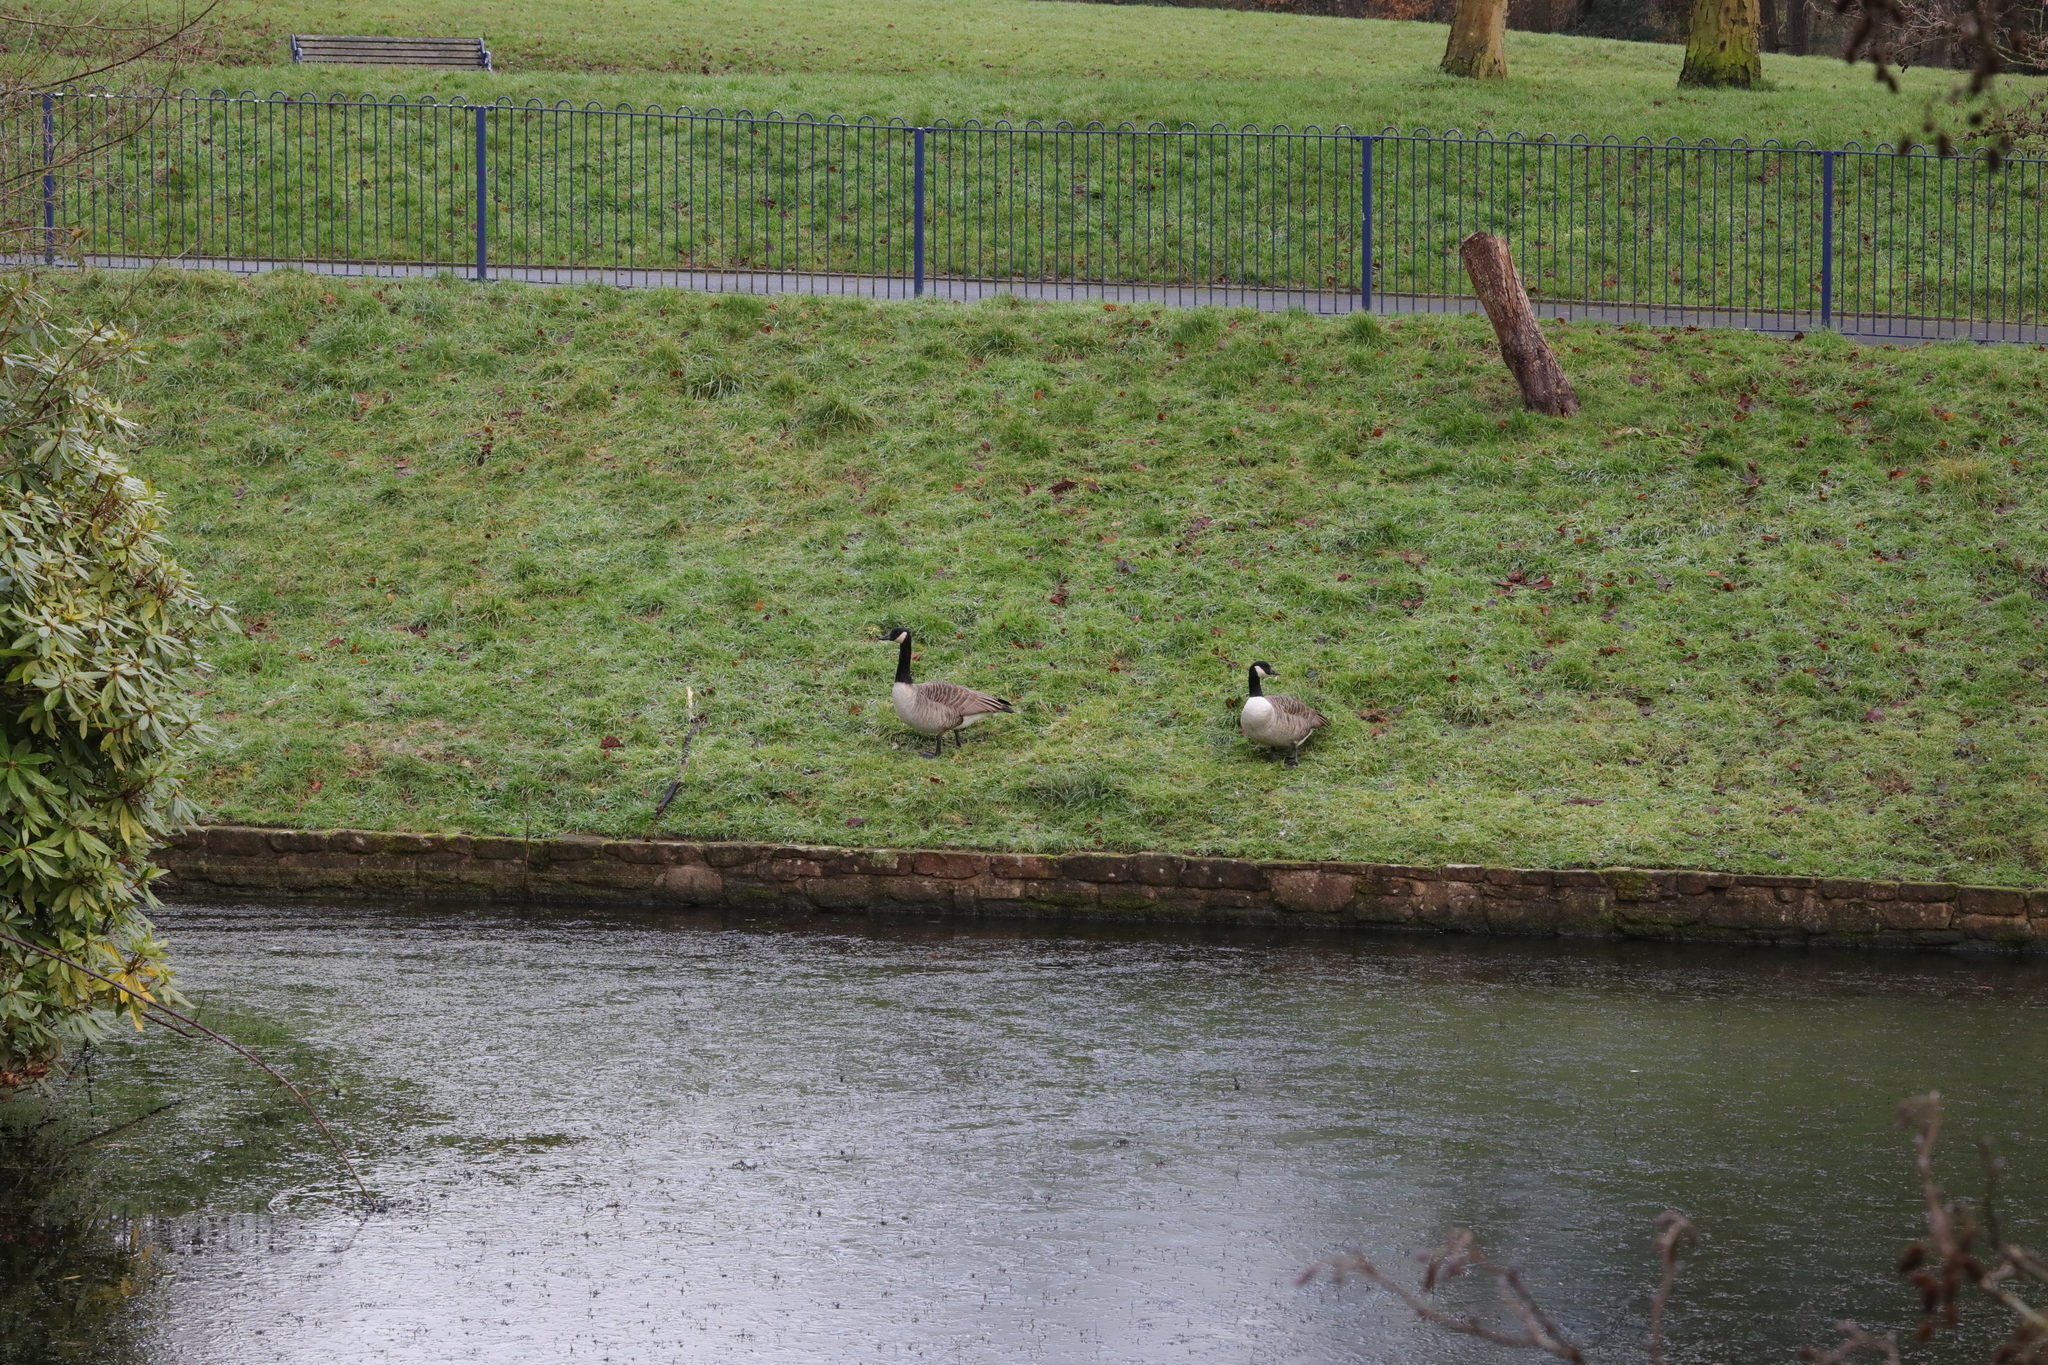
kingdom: Animalia
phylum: Chordata
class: Aves
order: Anseriformes
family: Anatidae
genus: Branta
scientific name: Branta canadensis
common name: Canada goose
